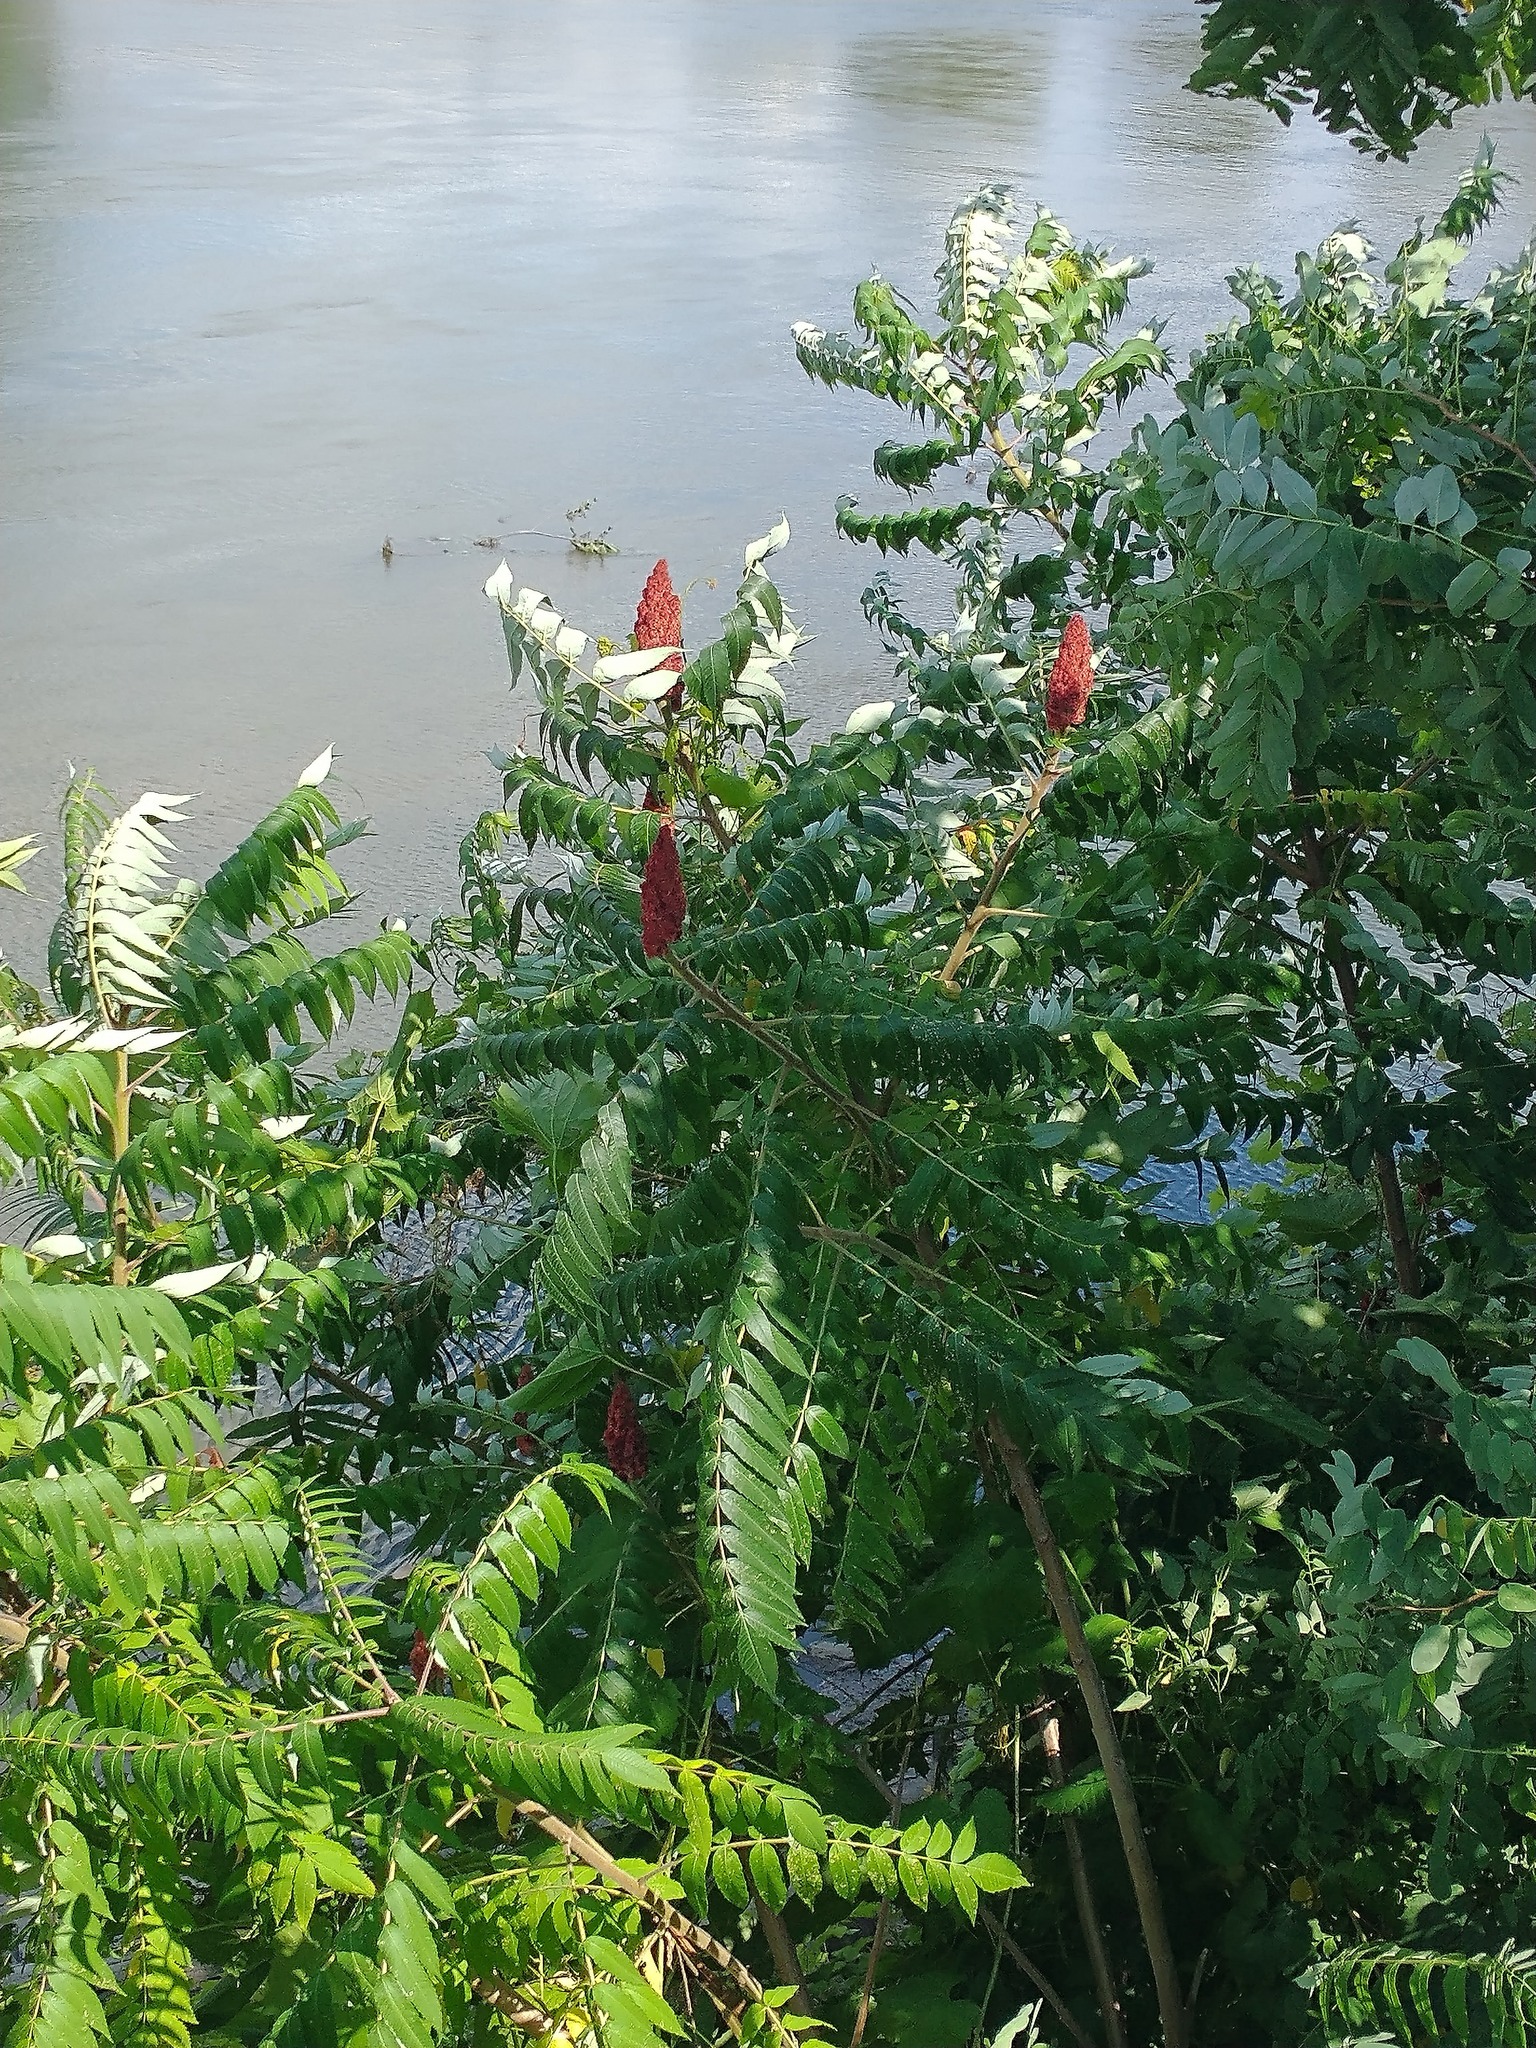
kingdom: Plantae
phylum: Tracheophyta
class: Magnoliopsida
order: Sapindales
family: Anacardiaceae
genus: Rhus
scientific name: Rhus typhina
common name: Staghorn sumac
